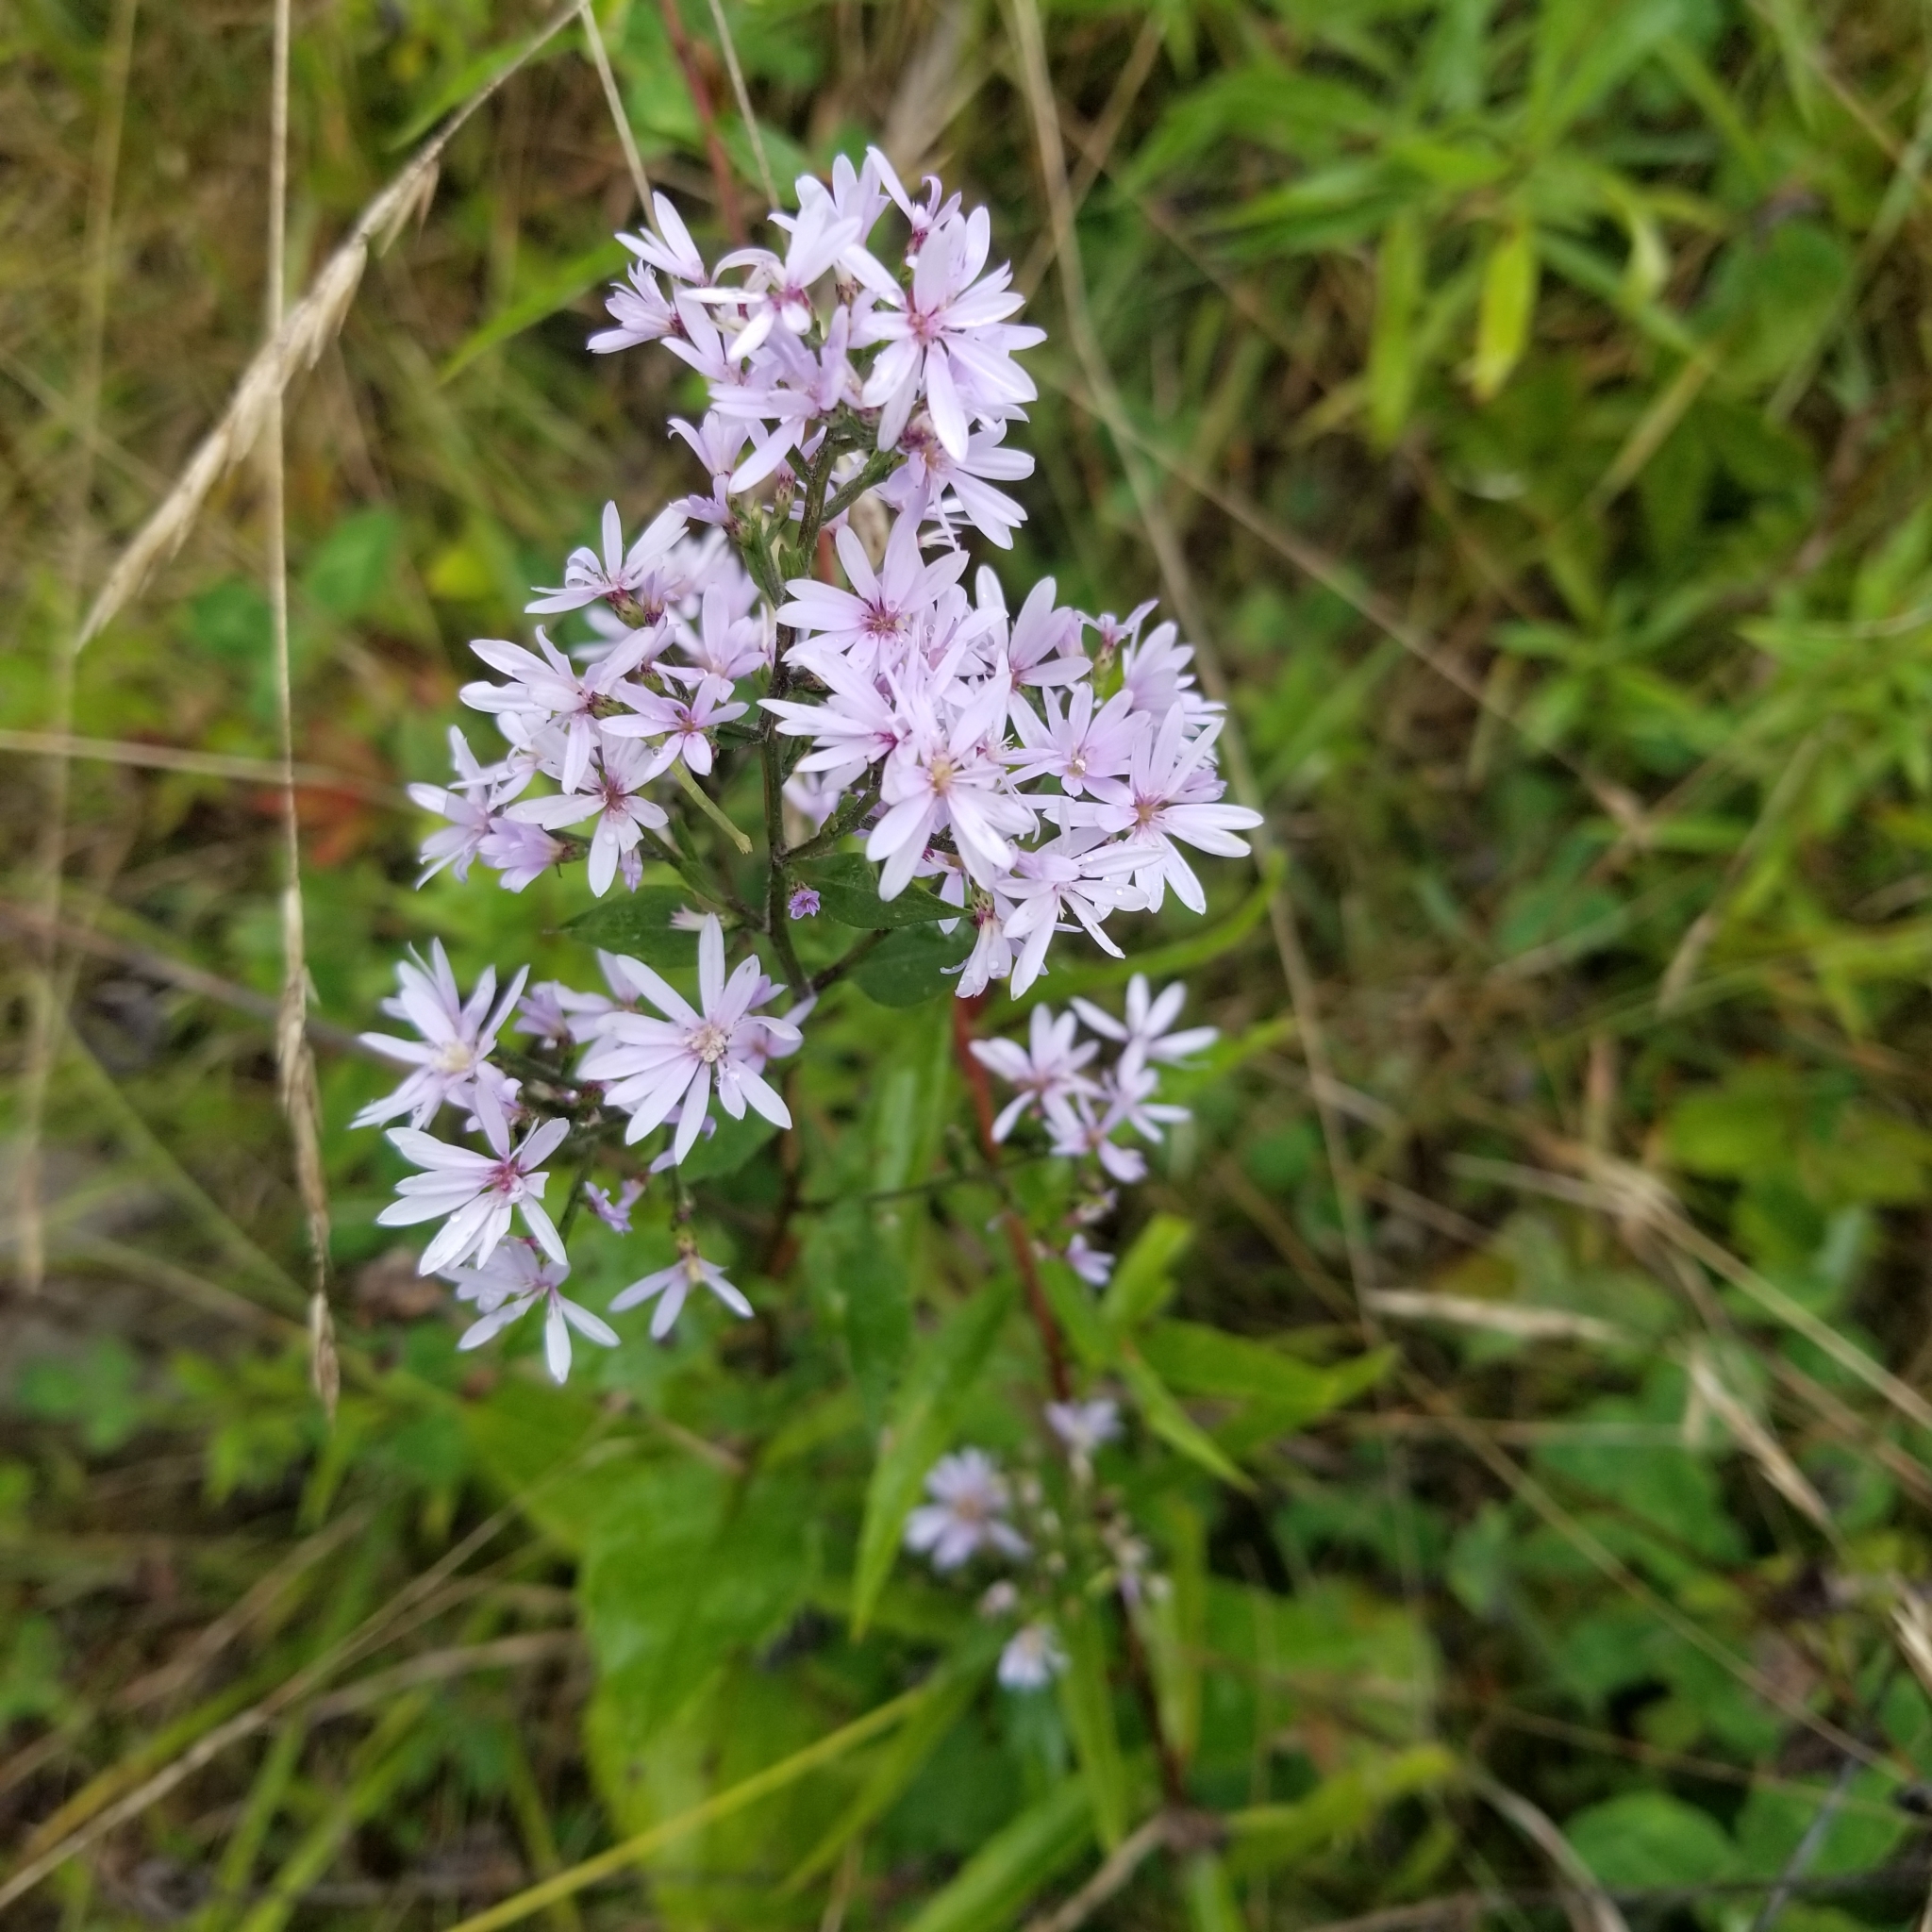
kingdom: Plantae
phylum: Tracheophyta
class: Magnoliopsida
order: Asterales
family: Asteraceae
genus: Symphyotrichum
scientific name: Symphyotrichum cordifolium
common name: Beeweed
